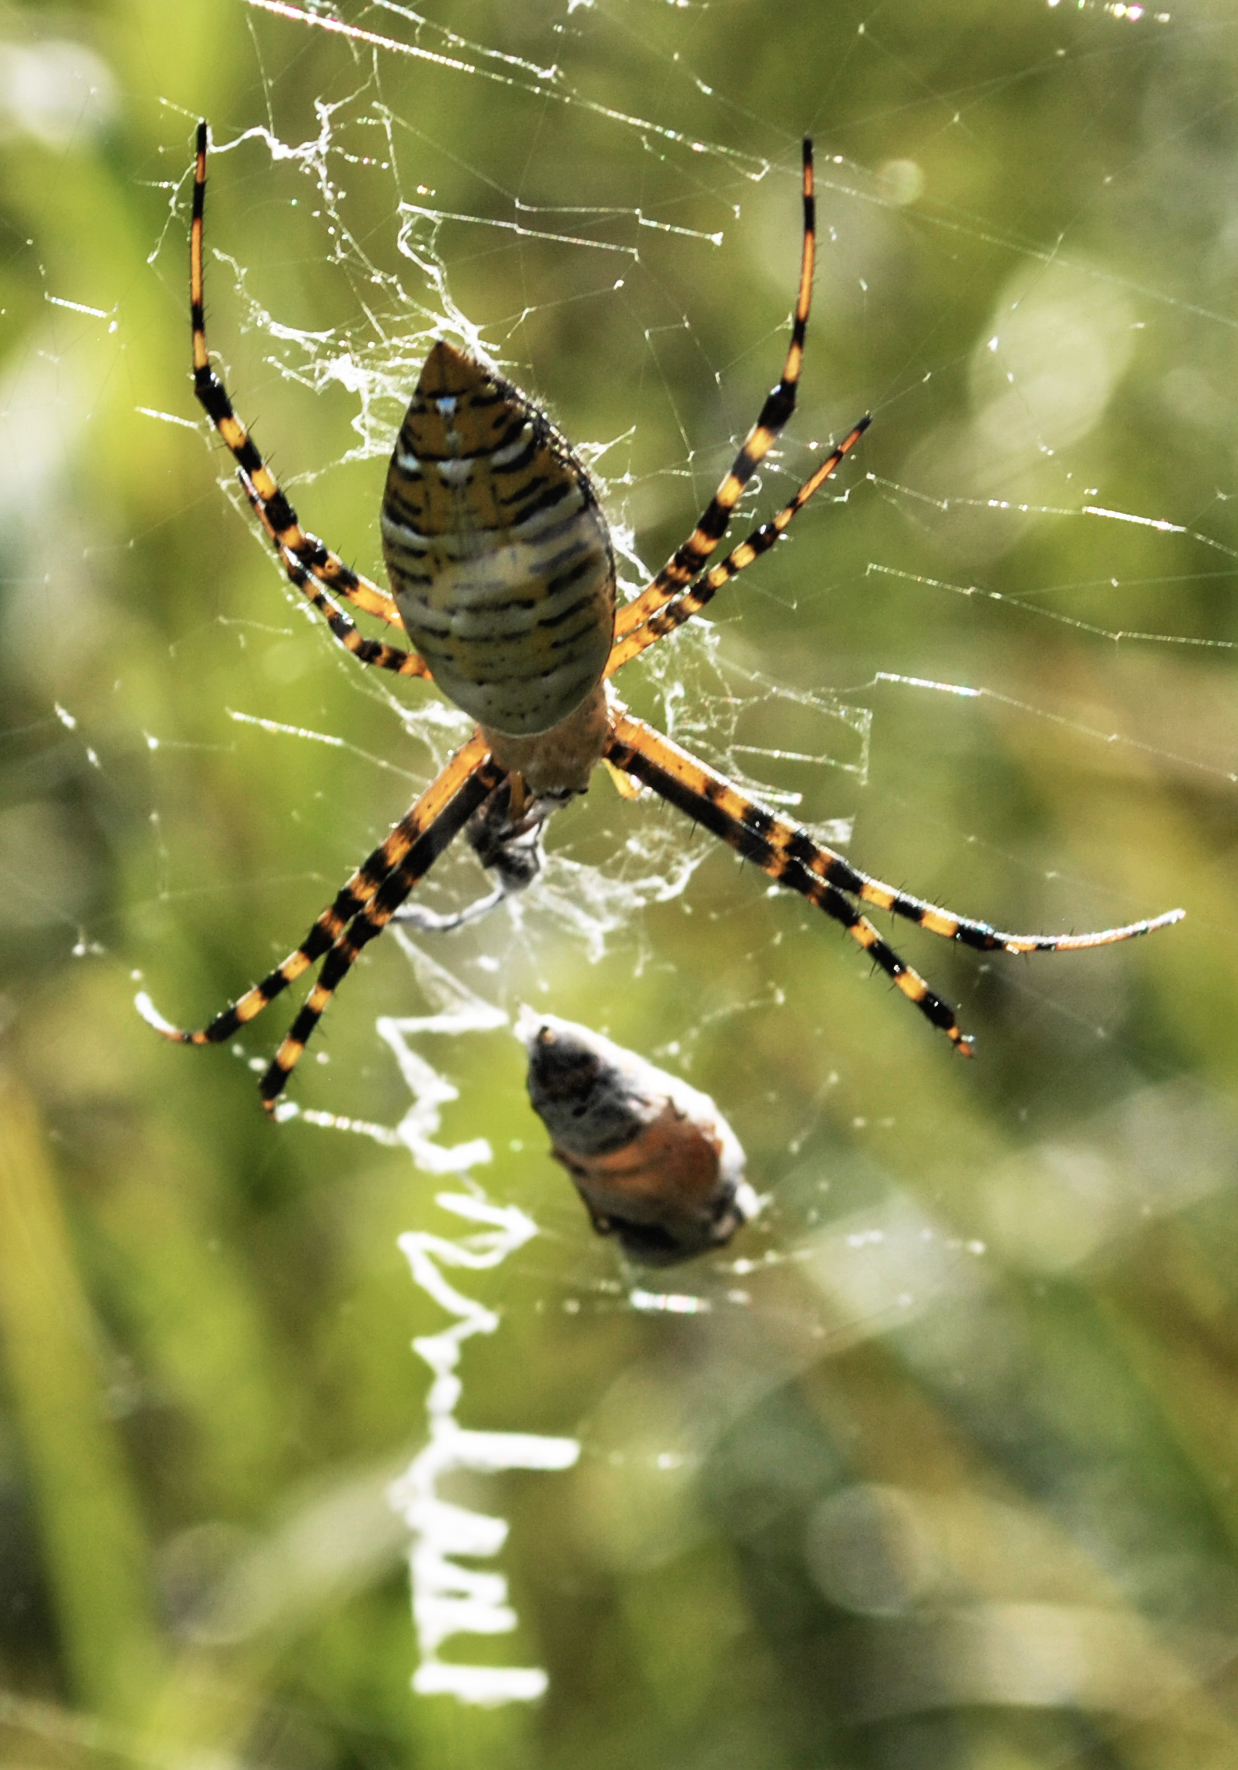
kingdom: Animalia
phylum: Arthropoda
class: Arachnida
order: Araneae
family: Araneidae
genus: Argiope
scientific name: Argiope trifasciata
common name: Banded garden spider
